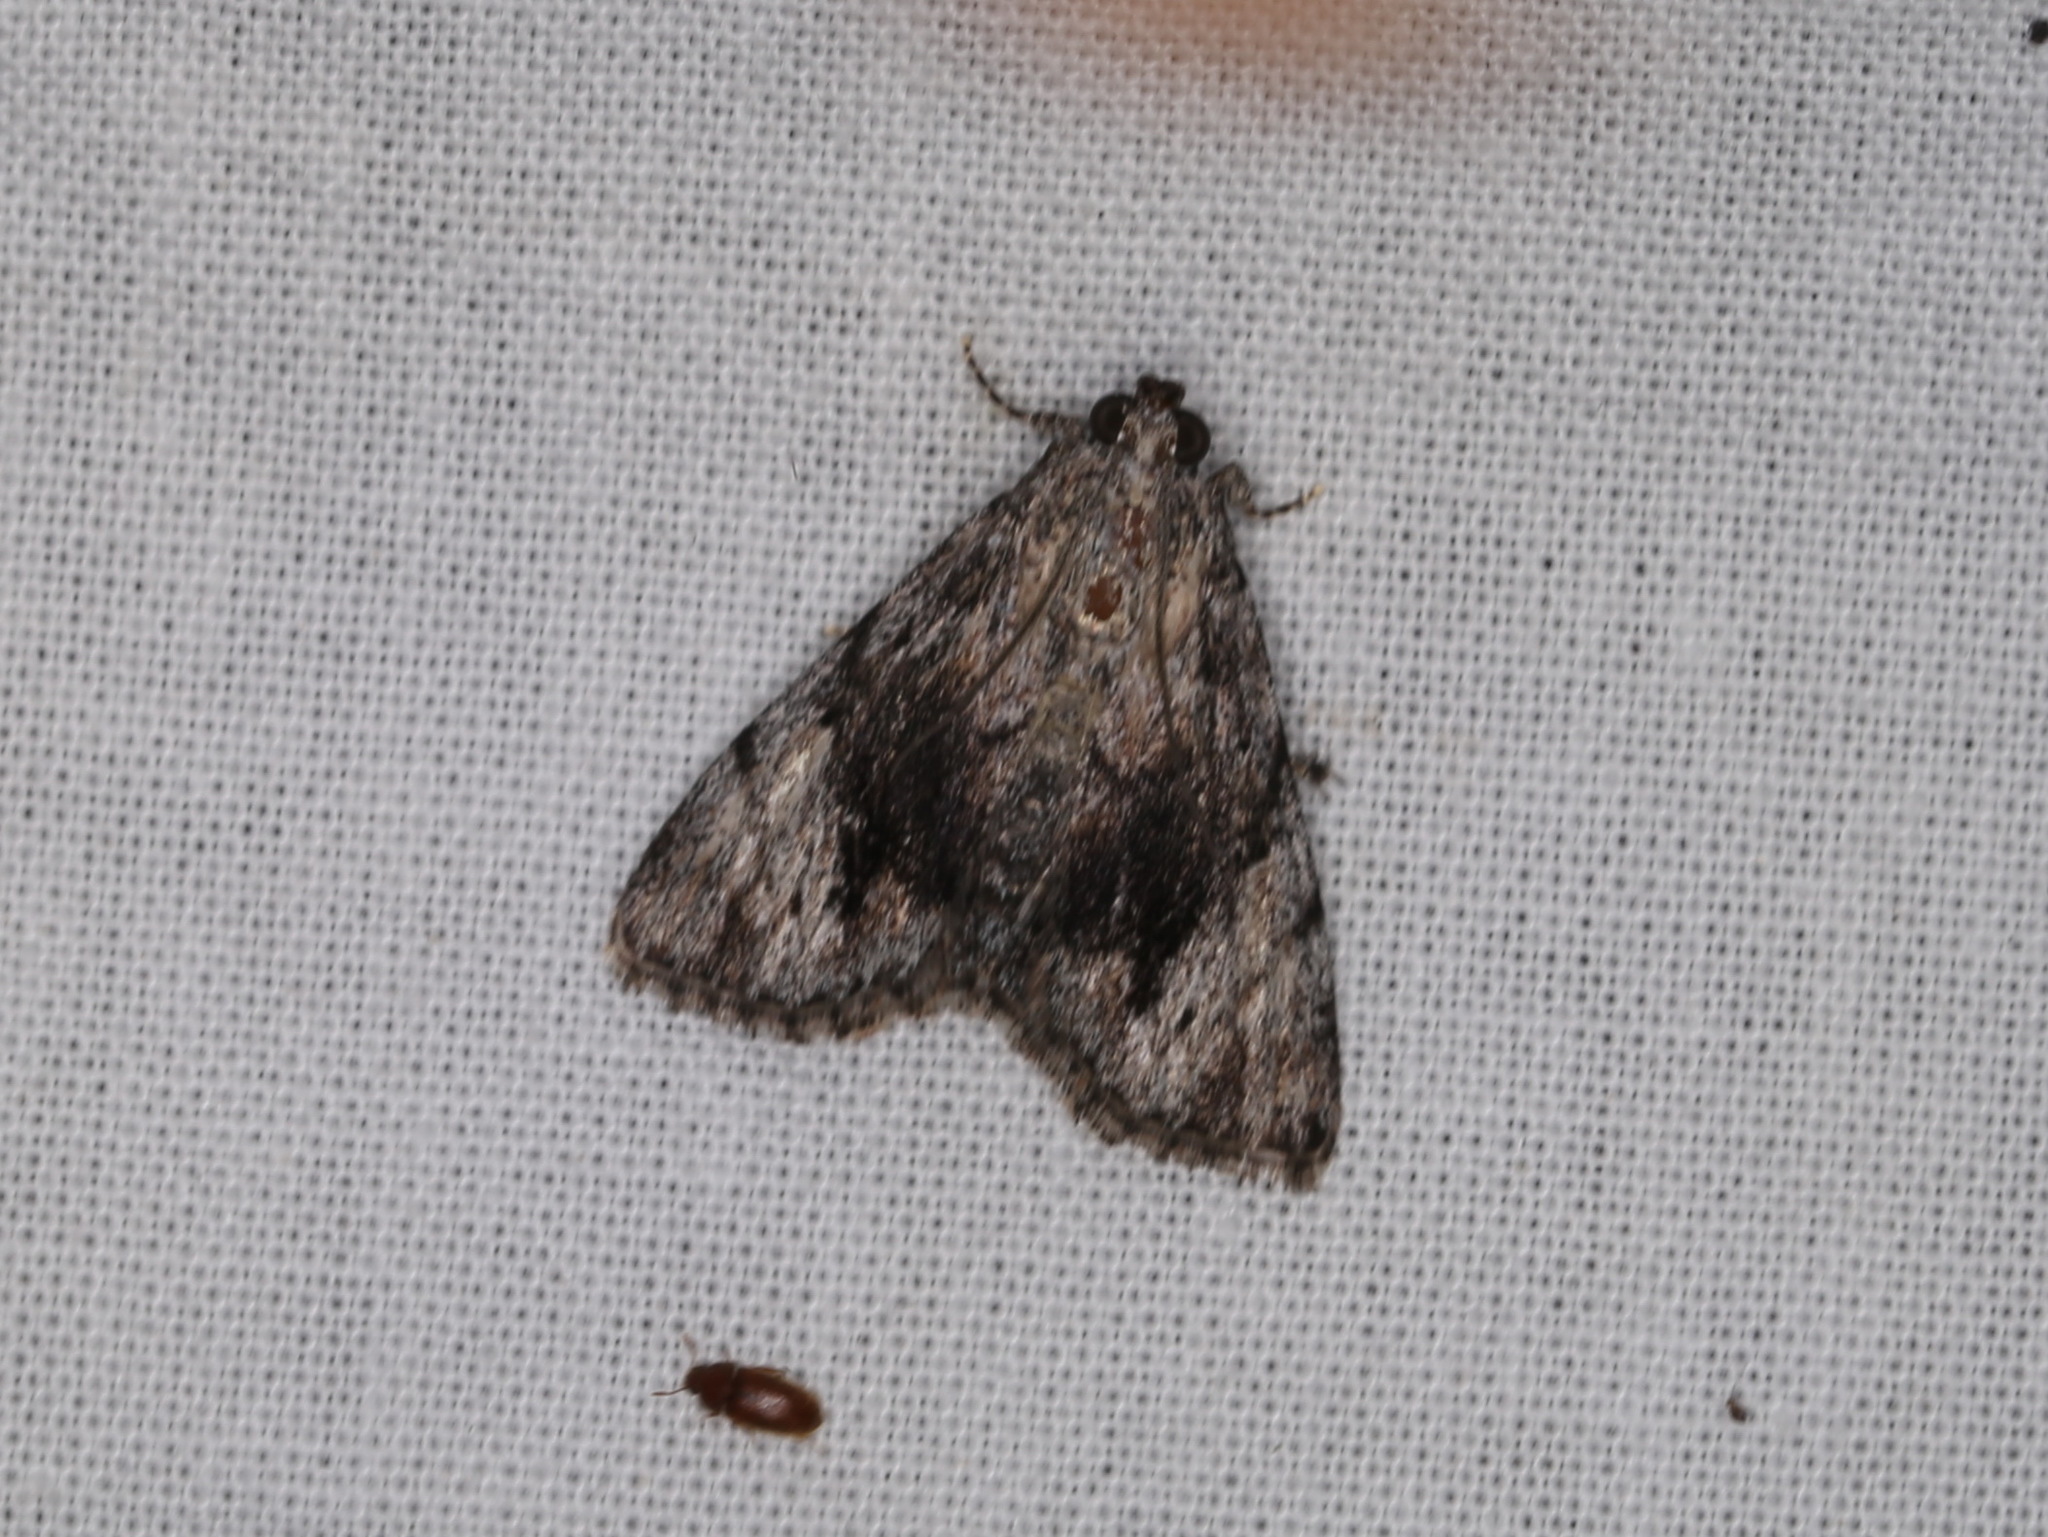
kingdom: Animalia
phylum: Arthropoda
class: Insecta
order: Lepidoptera
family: Pyralidae
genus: Salma
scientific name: Salma cholica
